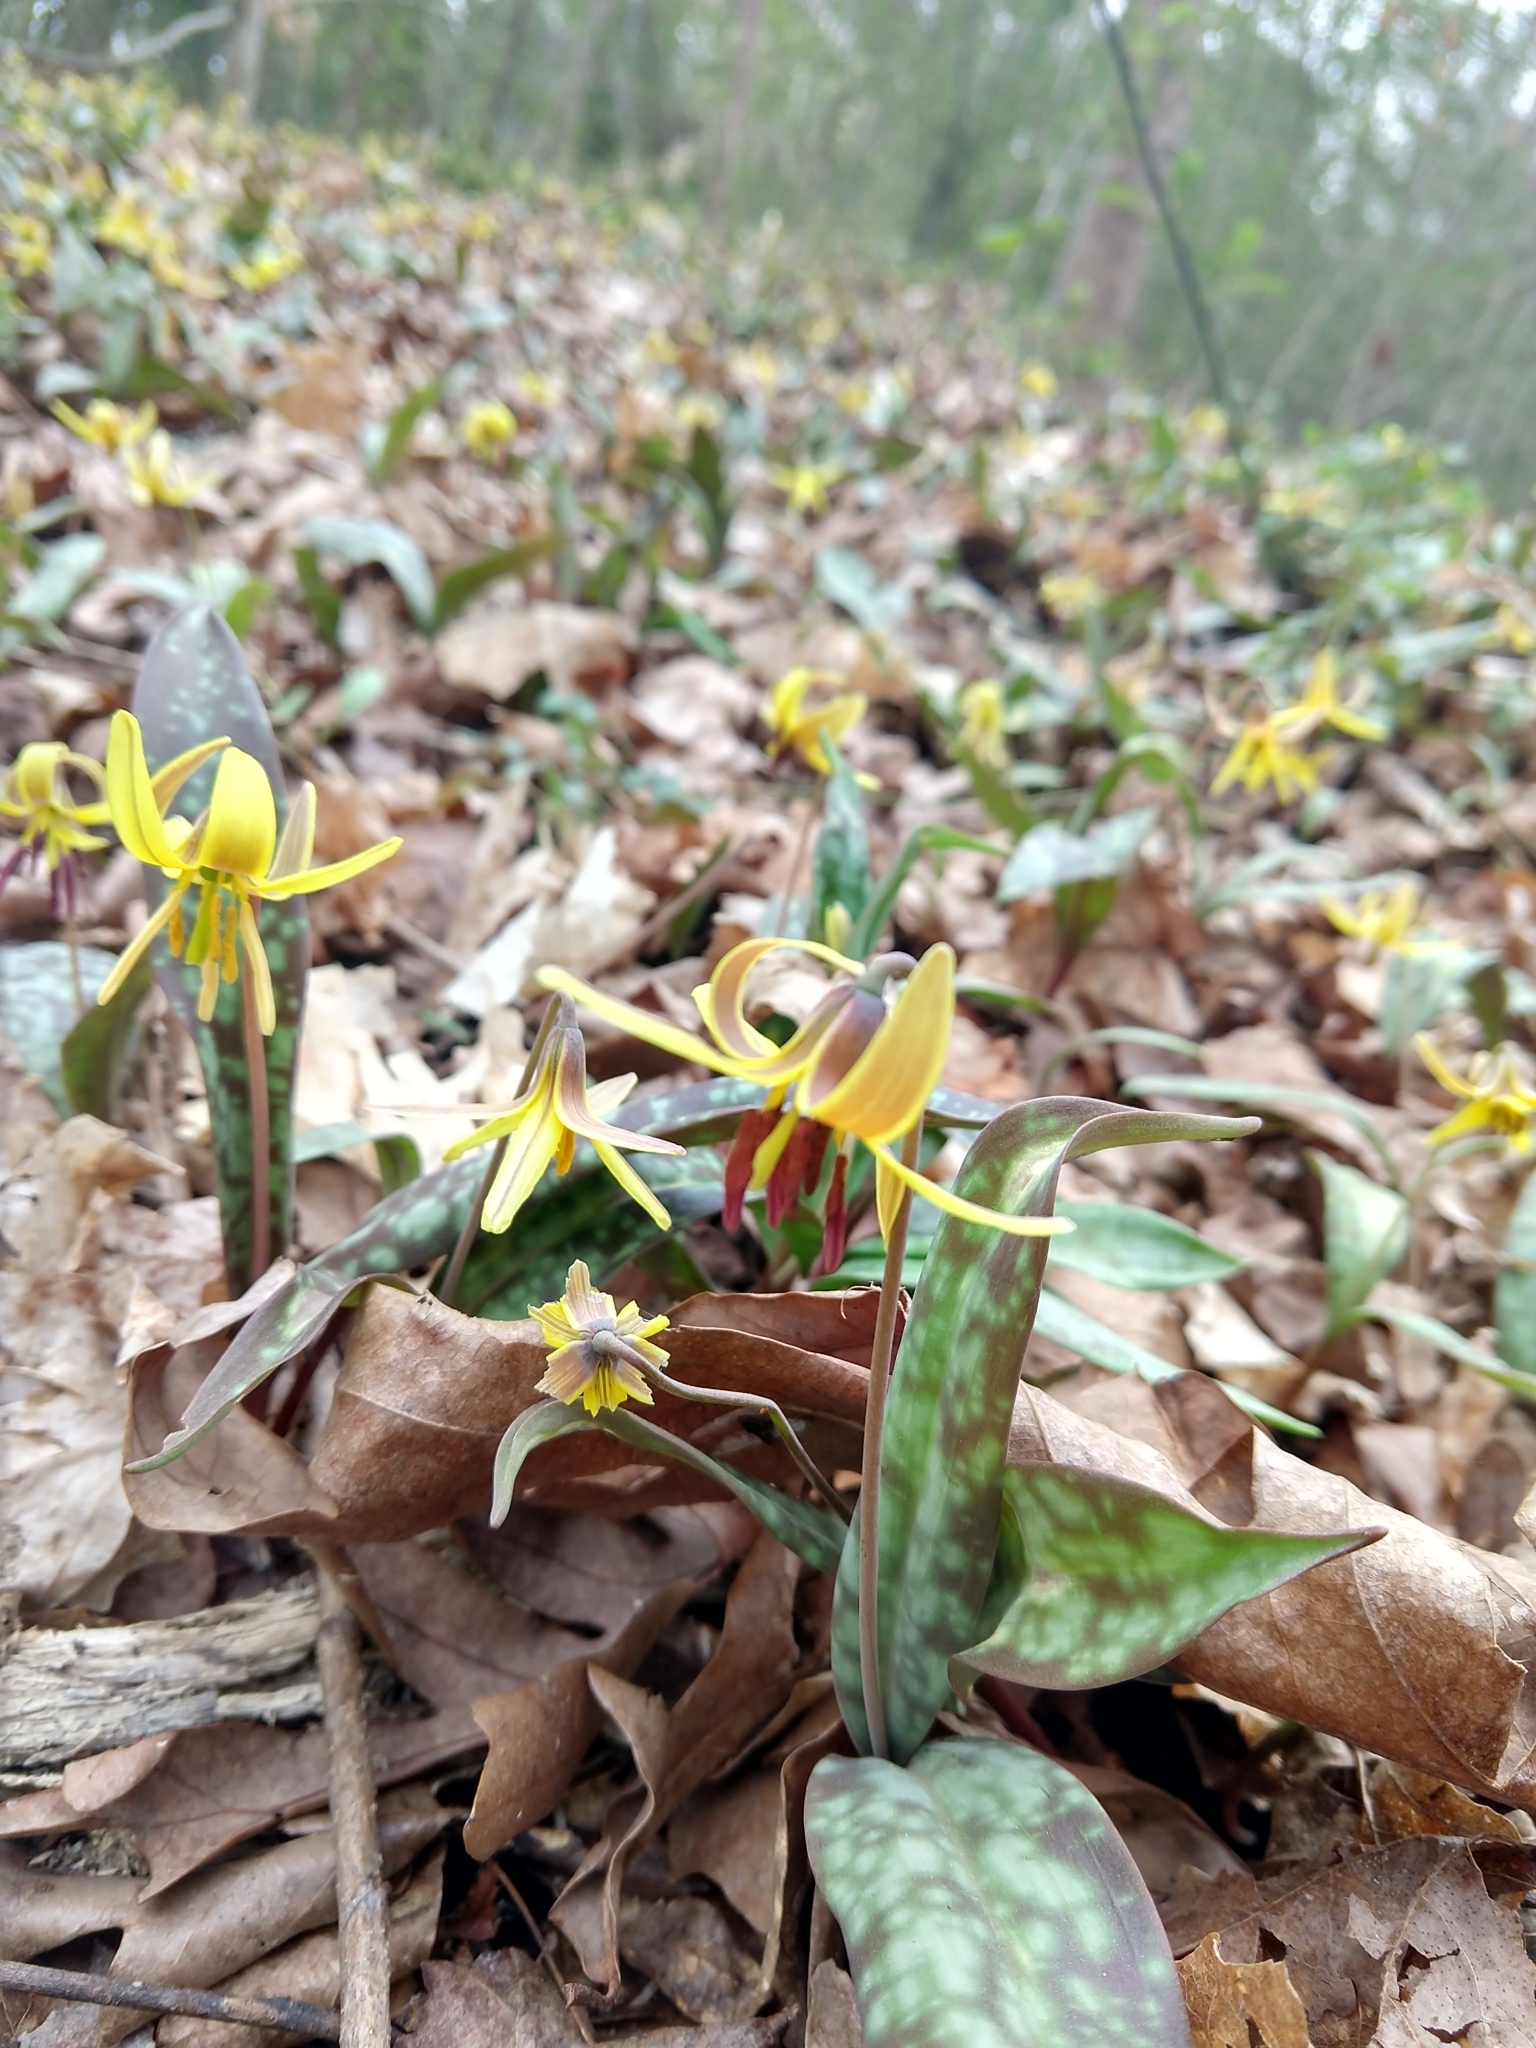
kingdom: Plantae
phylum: Tracheophyta
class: Liliopsida
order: Liliales
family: Liliaceae
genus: Erythronium
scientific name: Erythronium umbilicatum
